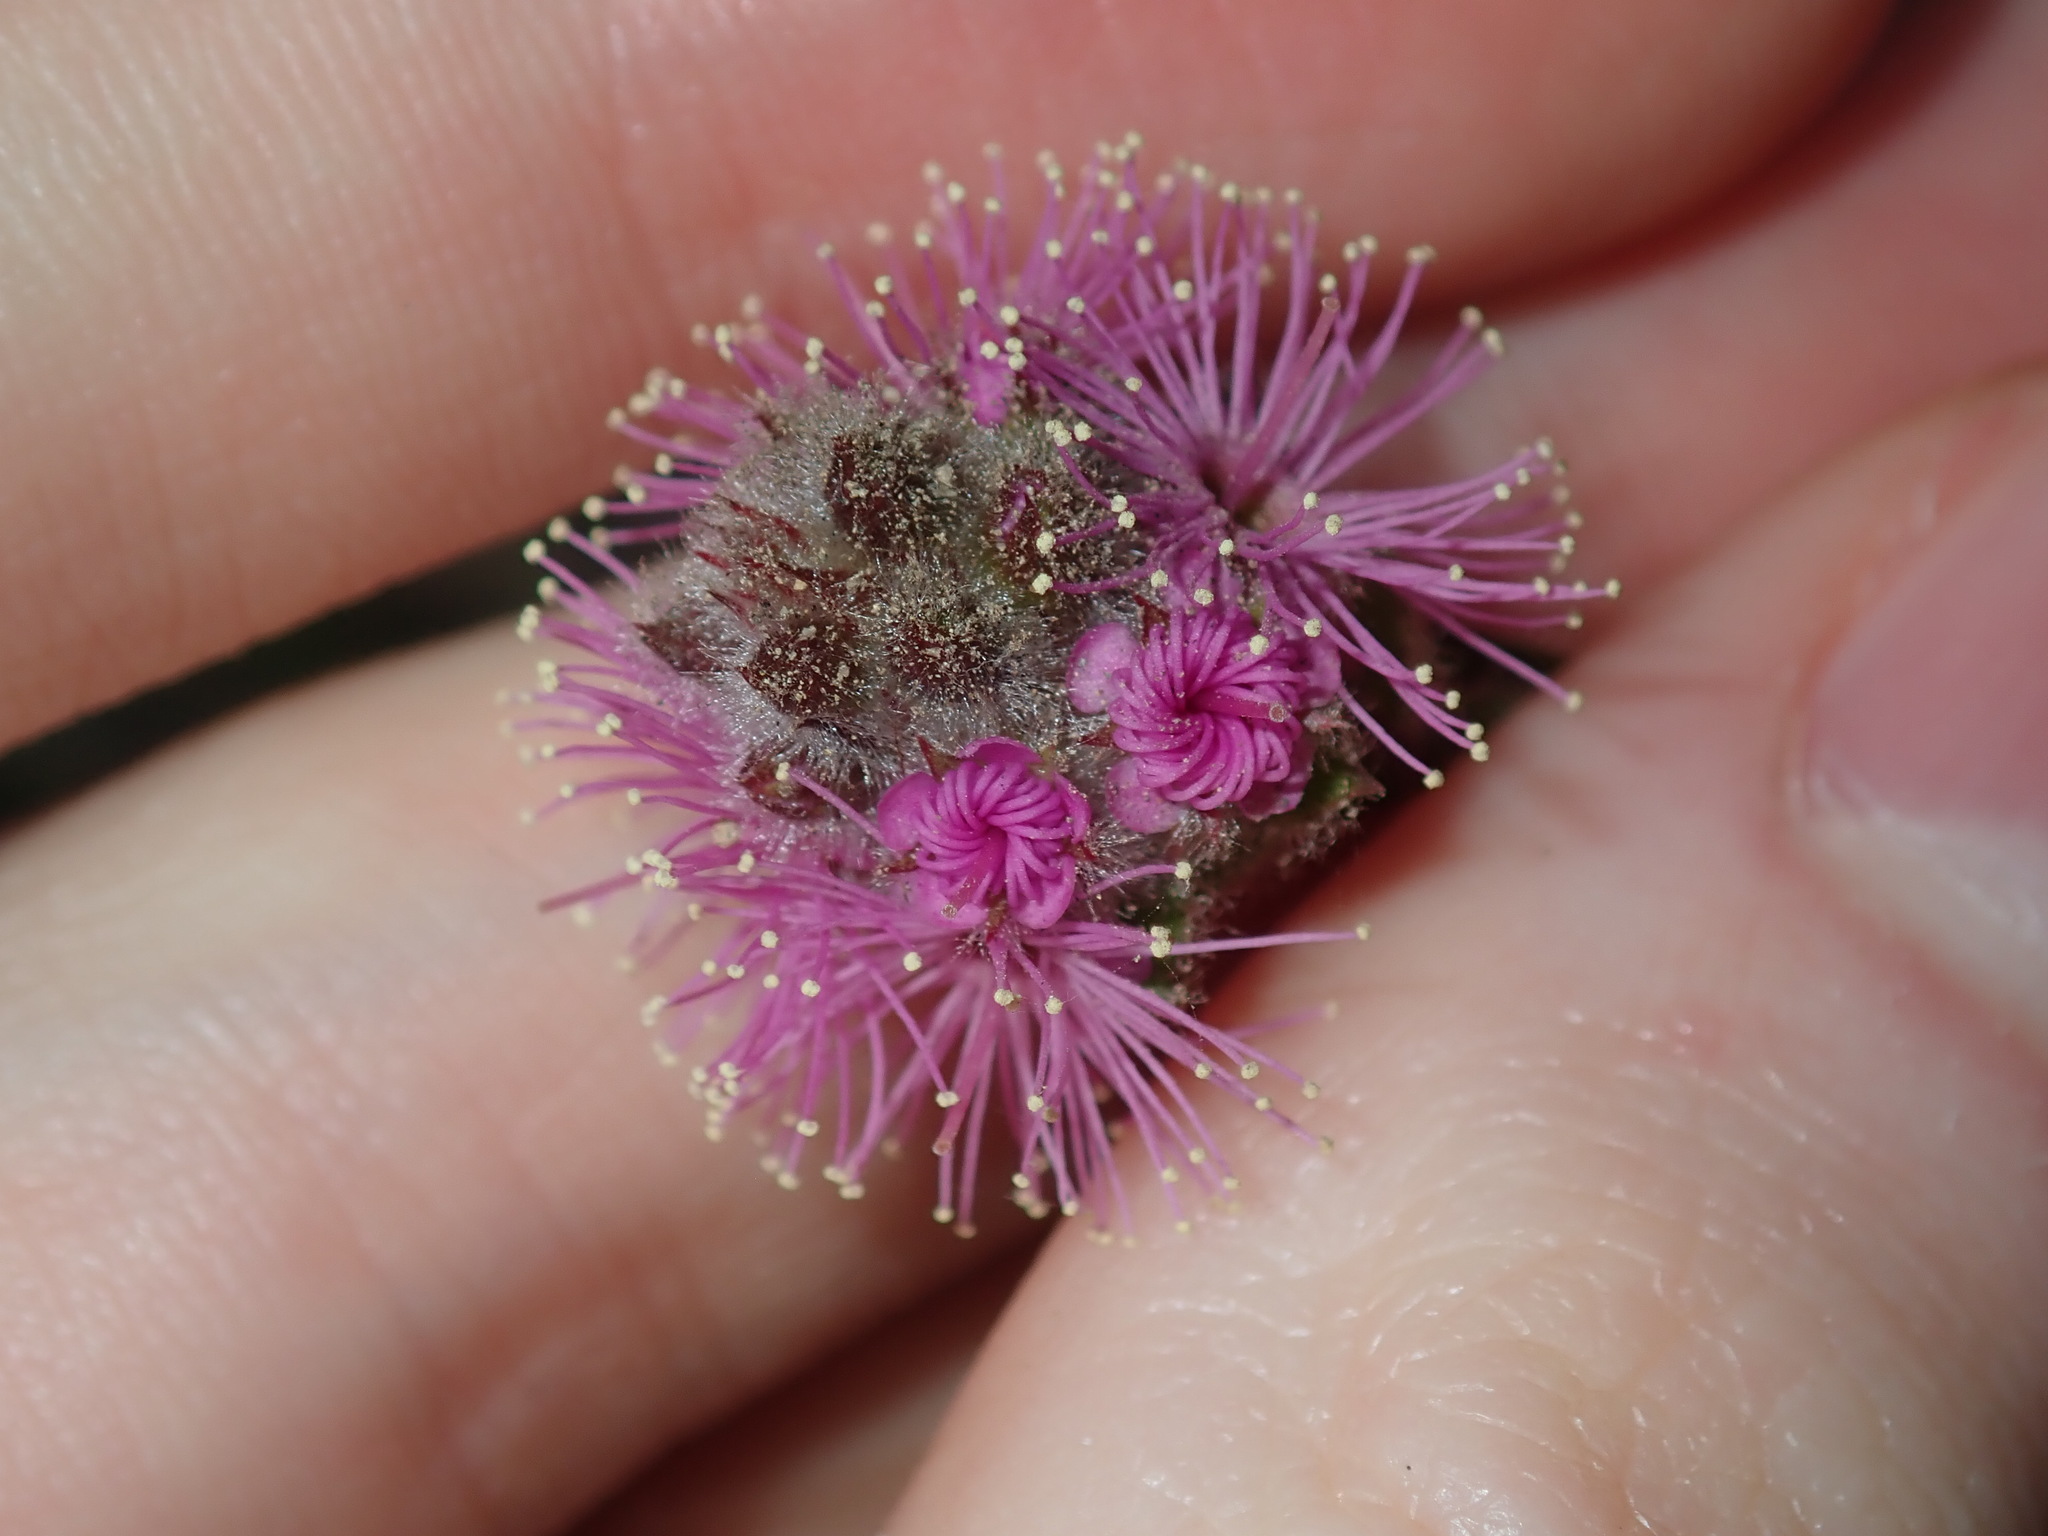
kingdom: Plantae
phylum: Tracheophyta
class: Magnoliopsida
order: Myrtales
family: Myrtaceae
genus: Kunzea
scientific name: Kunzea capitata
